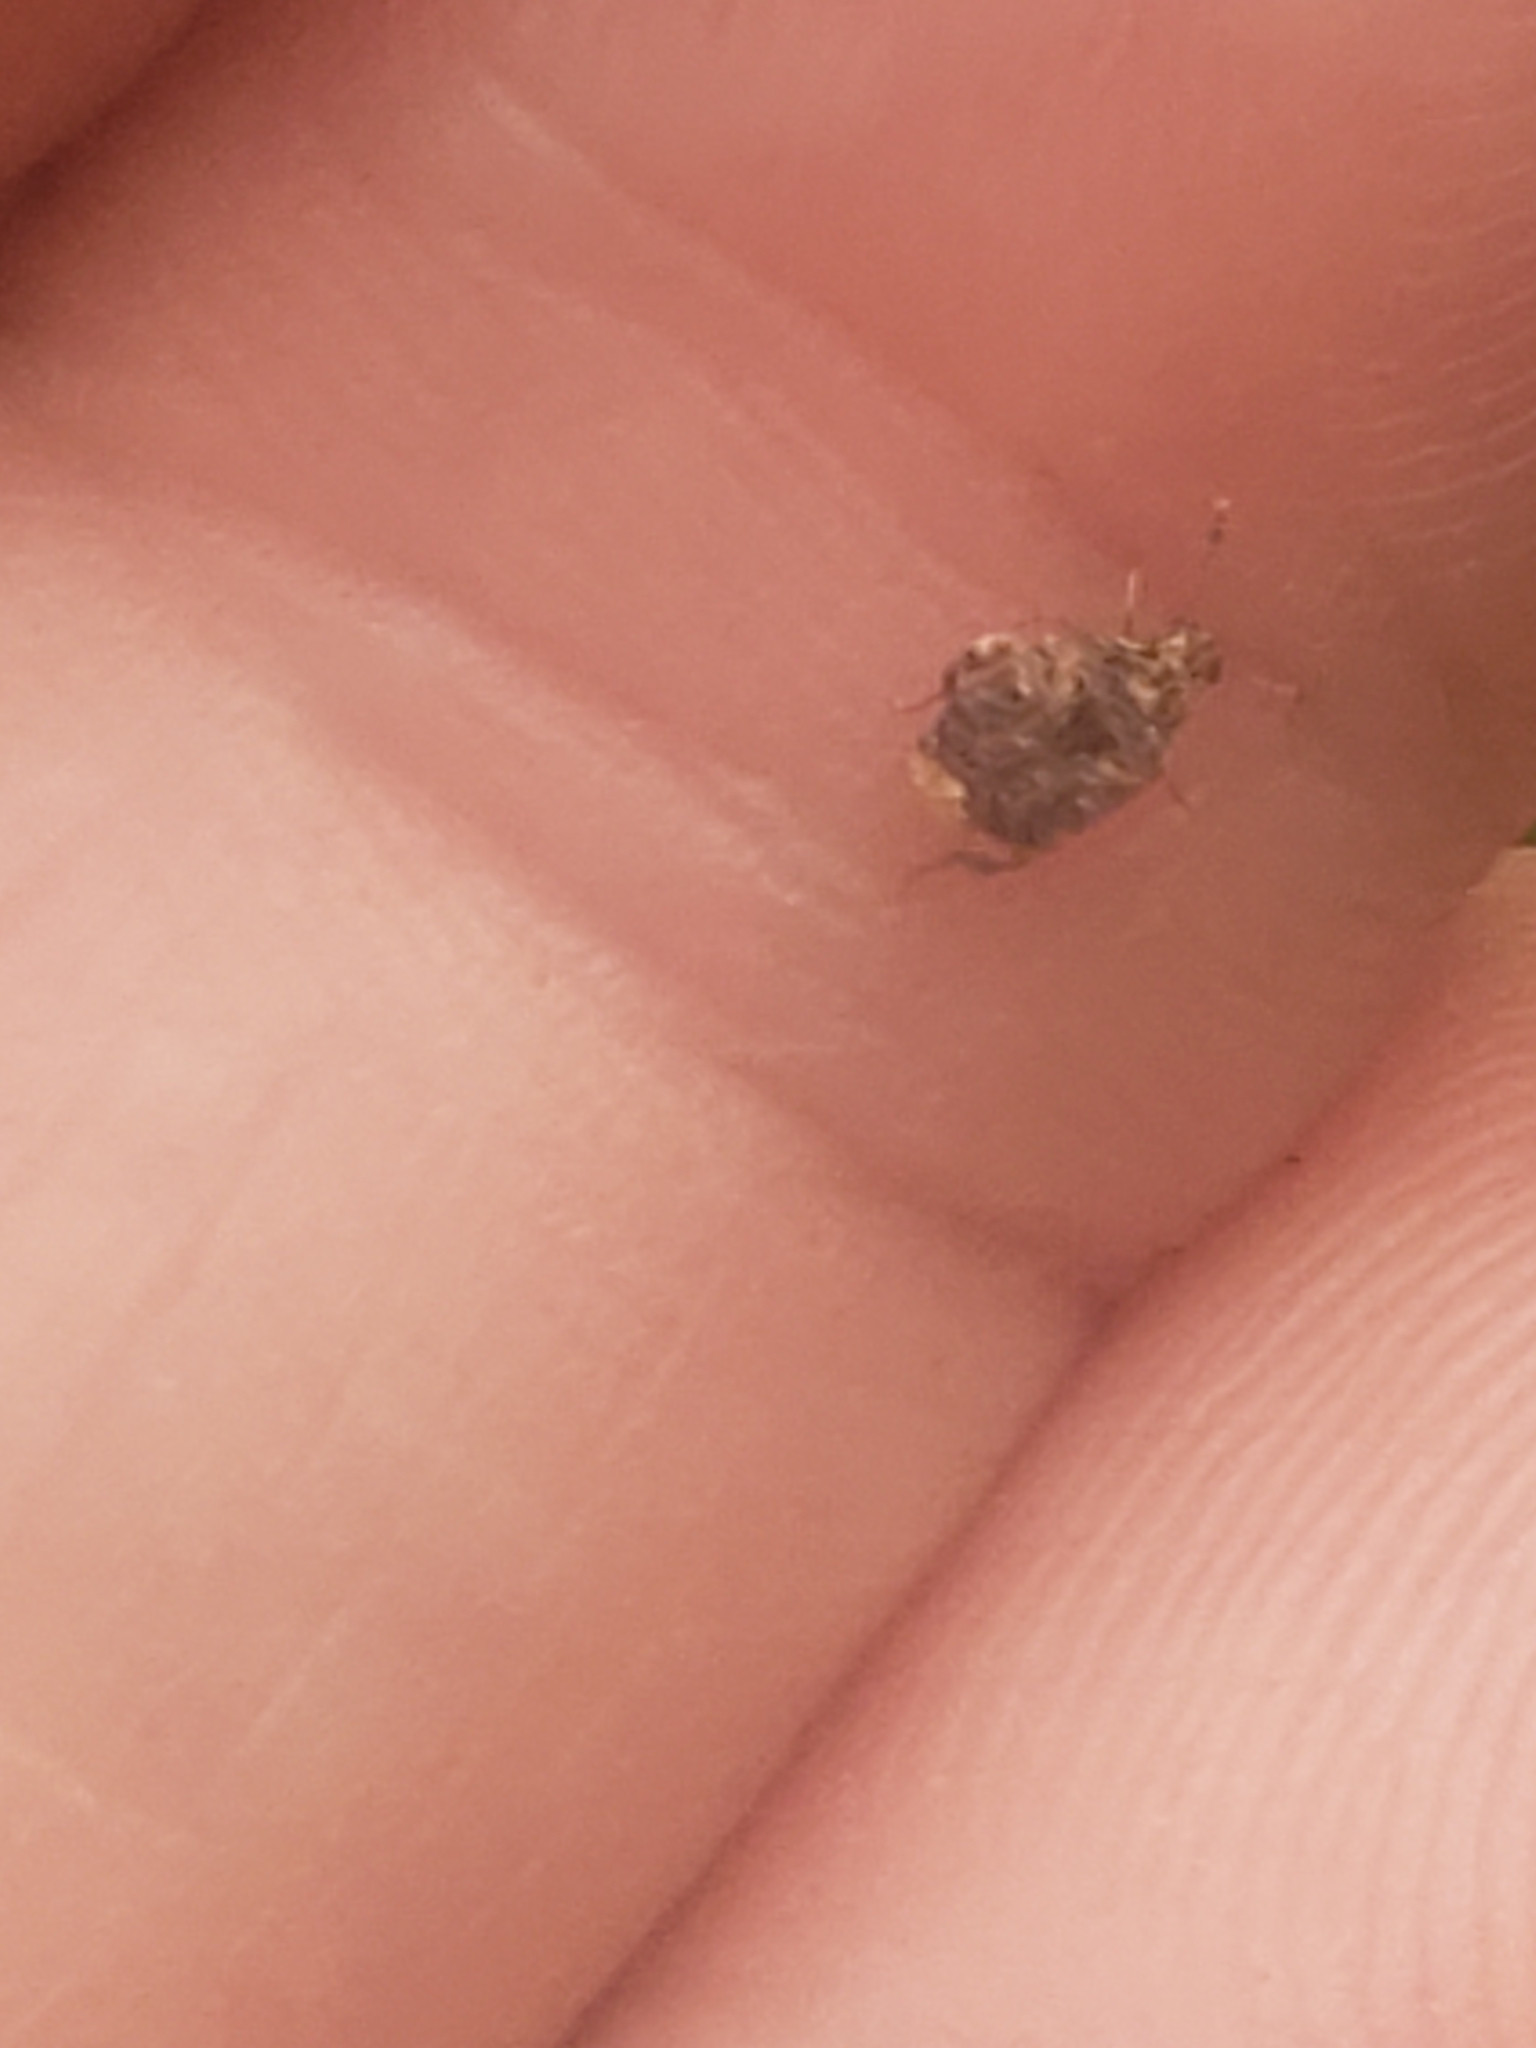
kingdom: Animalia
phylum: Arthropoda
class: Insecta
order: Coleoptera
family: Chrysomelidae
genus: Gibbobruchus
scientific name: Gibbobruchus mimus
